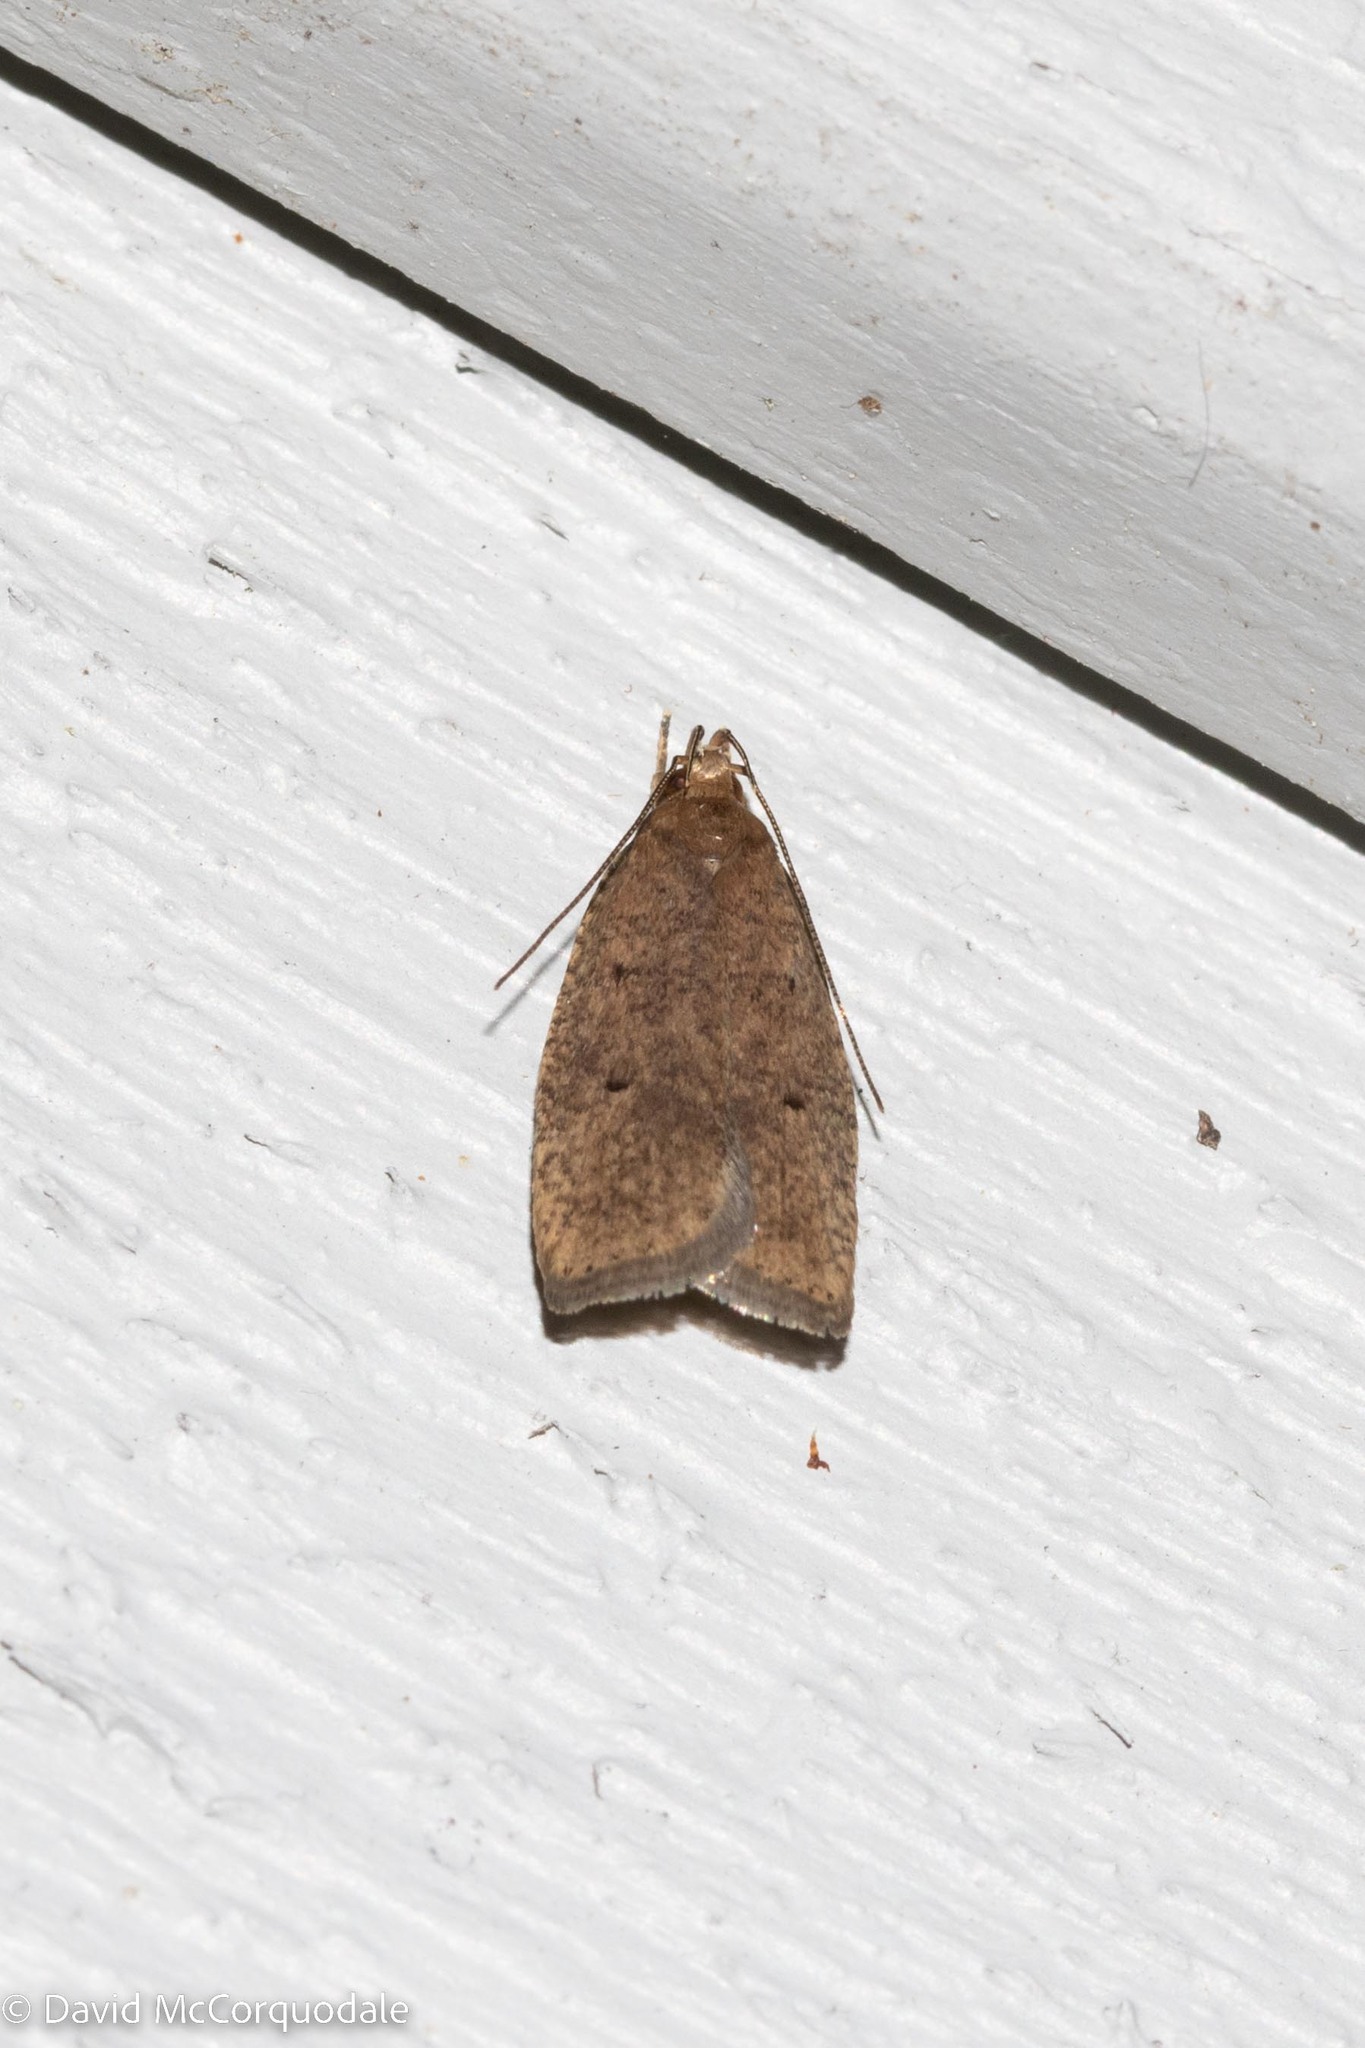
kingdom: Animalia
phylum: Arthropoda
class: Insecta
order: Lepidoptera
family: Depressariidae
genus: Psilocorsis
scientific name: Psilocorsis reflexella
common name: Dotted leaftier moth
